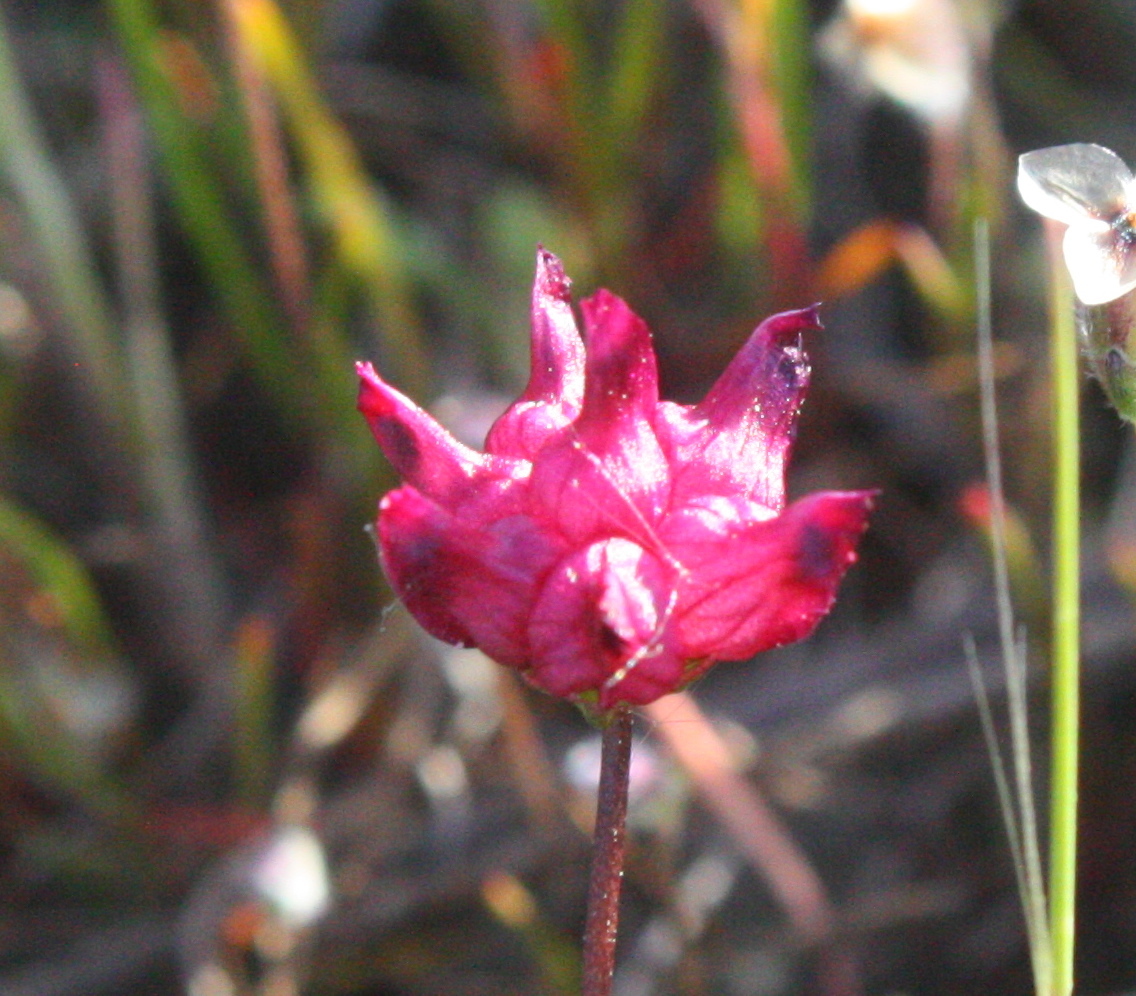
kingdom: Plantae
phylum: Tracheophyta
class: Magnoliopsida
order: Fabales
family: Fabaceae
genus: Trifolium
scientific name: Trifolium depauperatum
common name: Poverty clover
